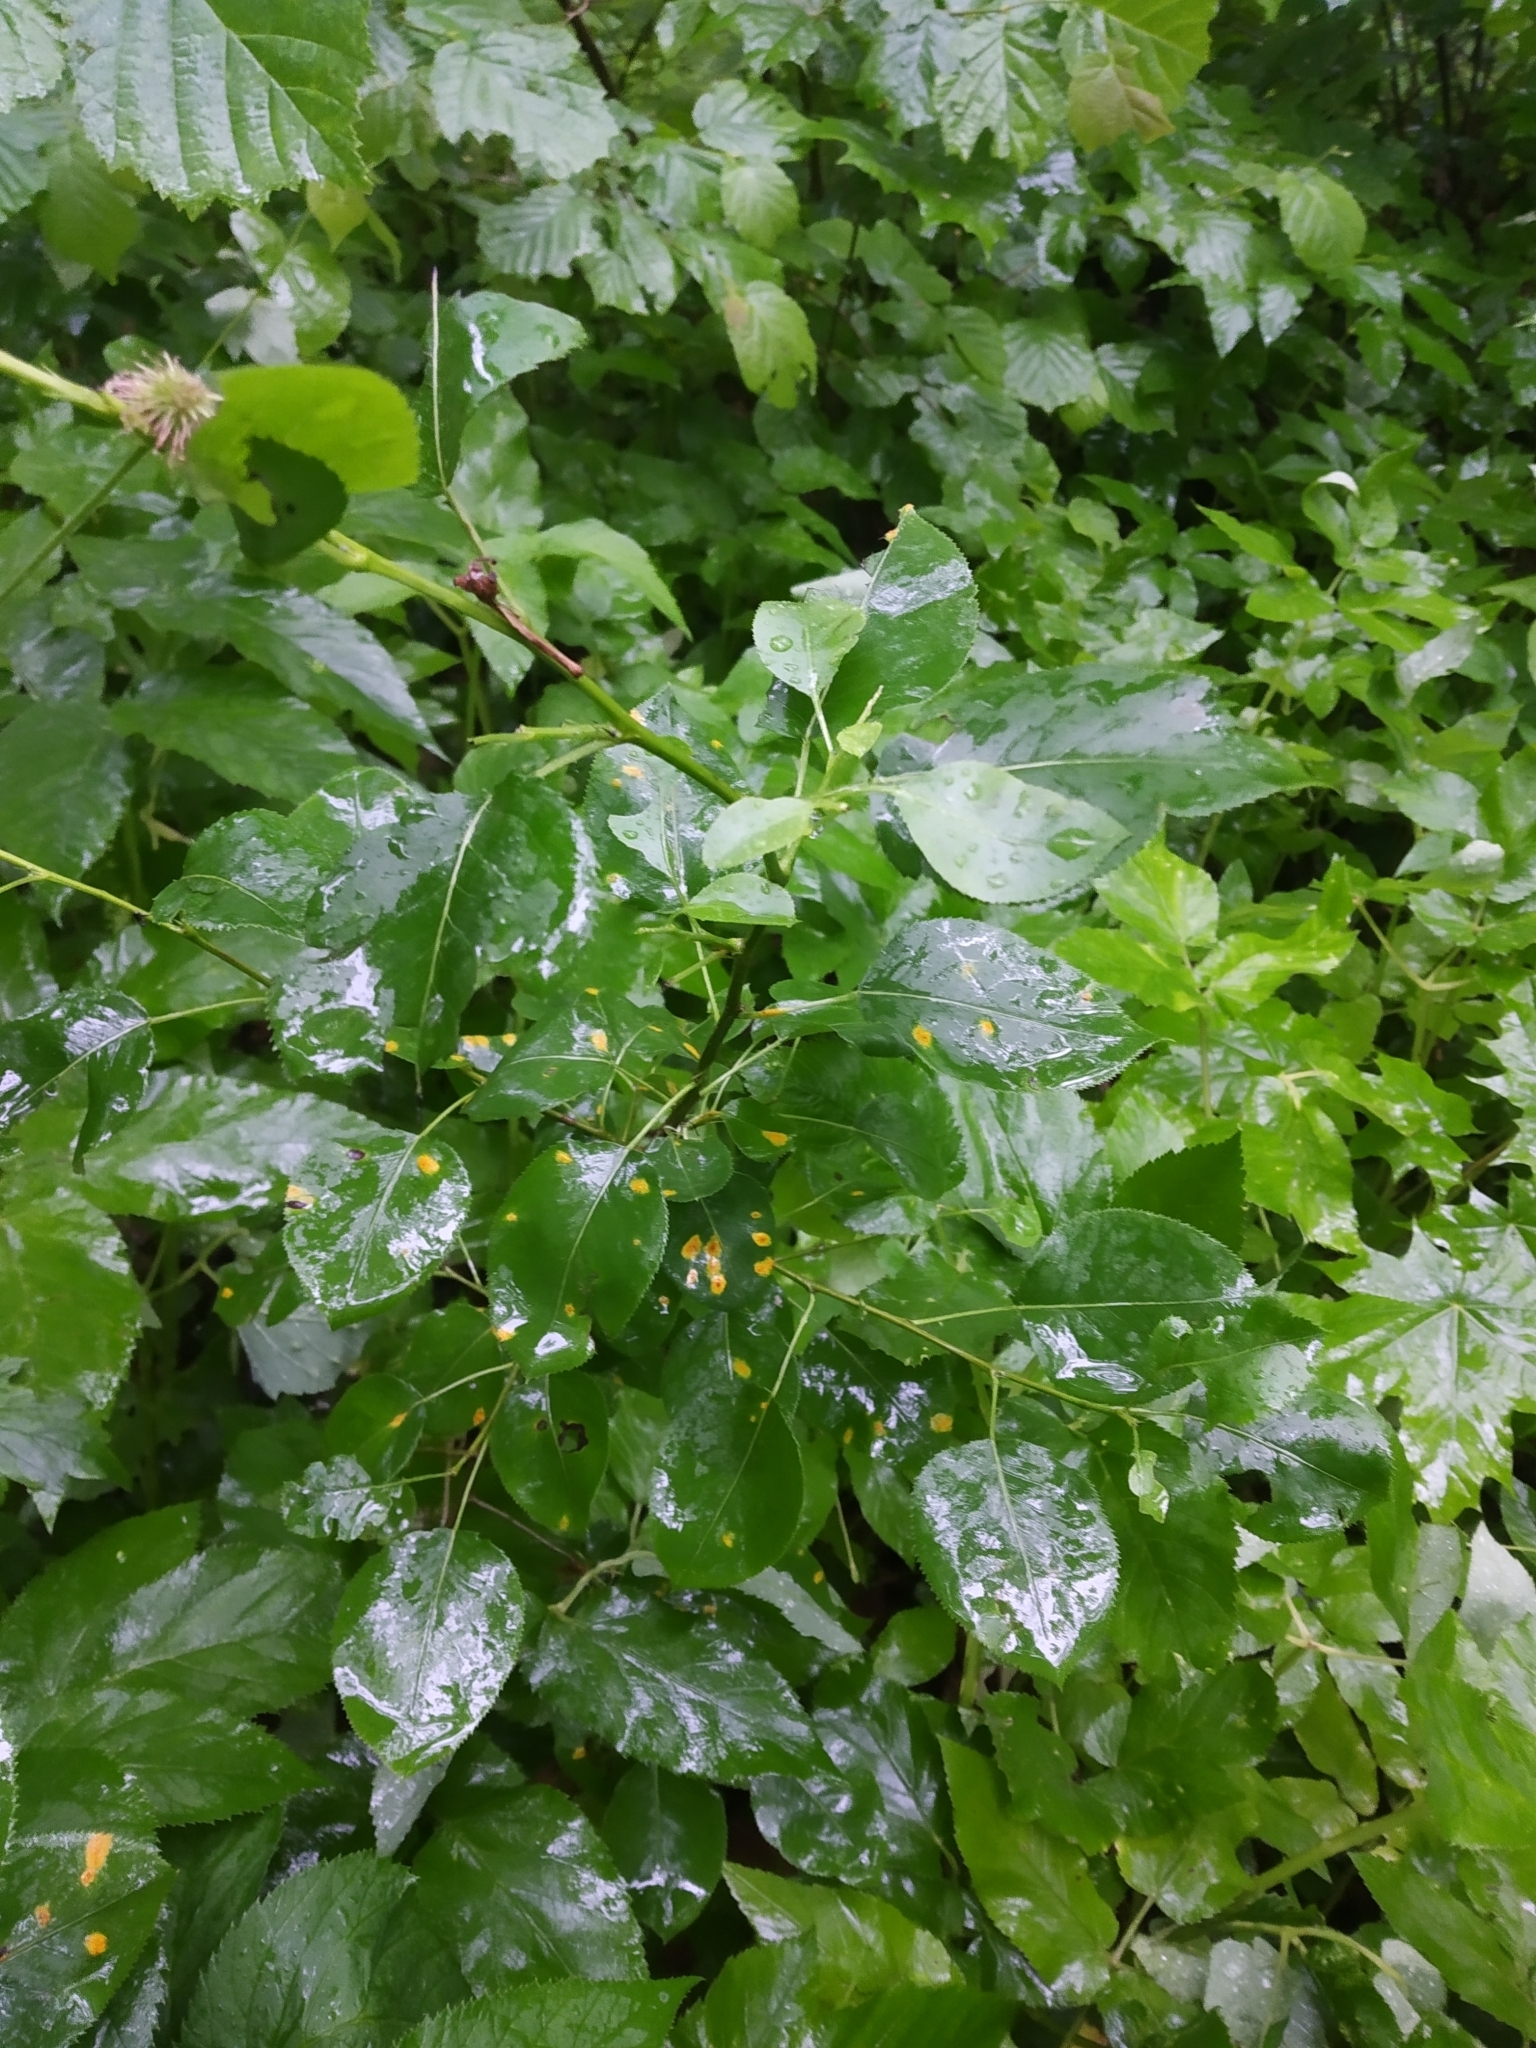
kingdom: Plantae
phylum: Tracheophyta
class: Magnoliopsida
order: Rosales
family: Rosaceae
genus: Pyrus
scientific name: Pyrus communis
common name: Pear
